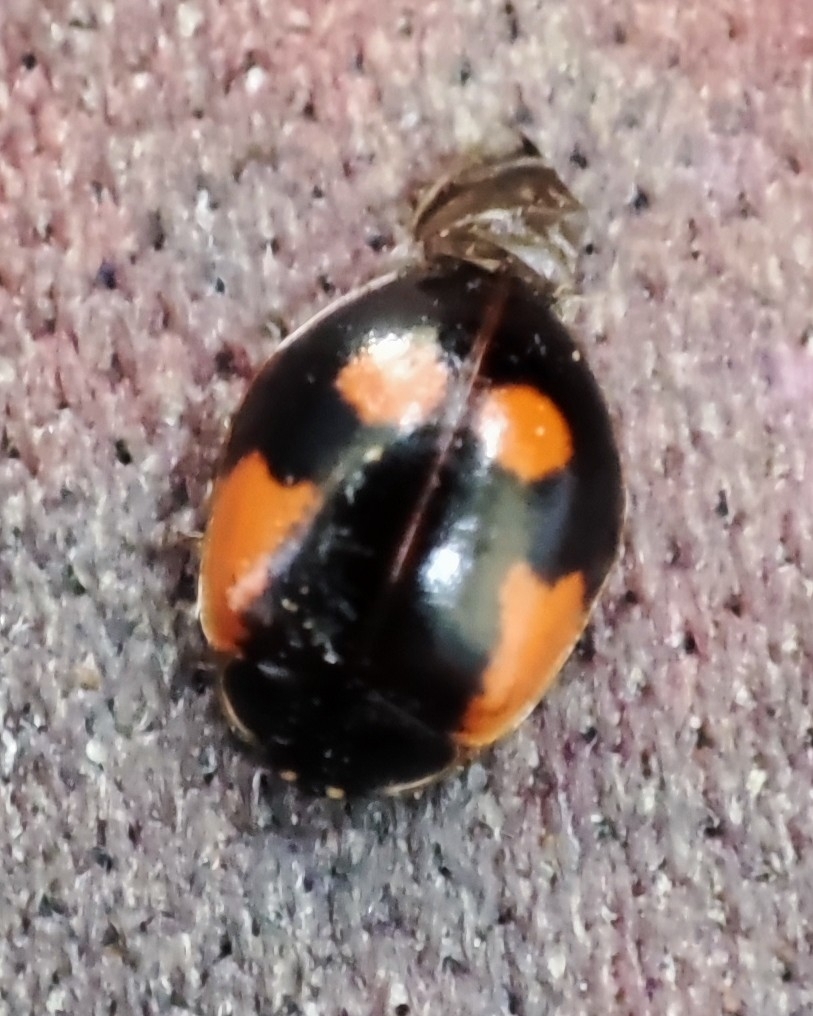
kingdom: Animalia
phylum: Arthropoda
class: Insecta
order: Coleoptera
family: Coccinellidae
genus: Adalia
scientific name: Adalia bipunctata
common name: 2-spot ladybird
